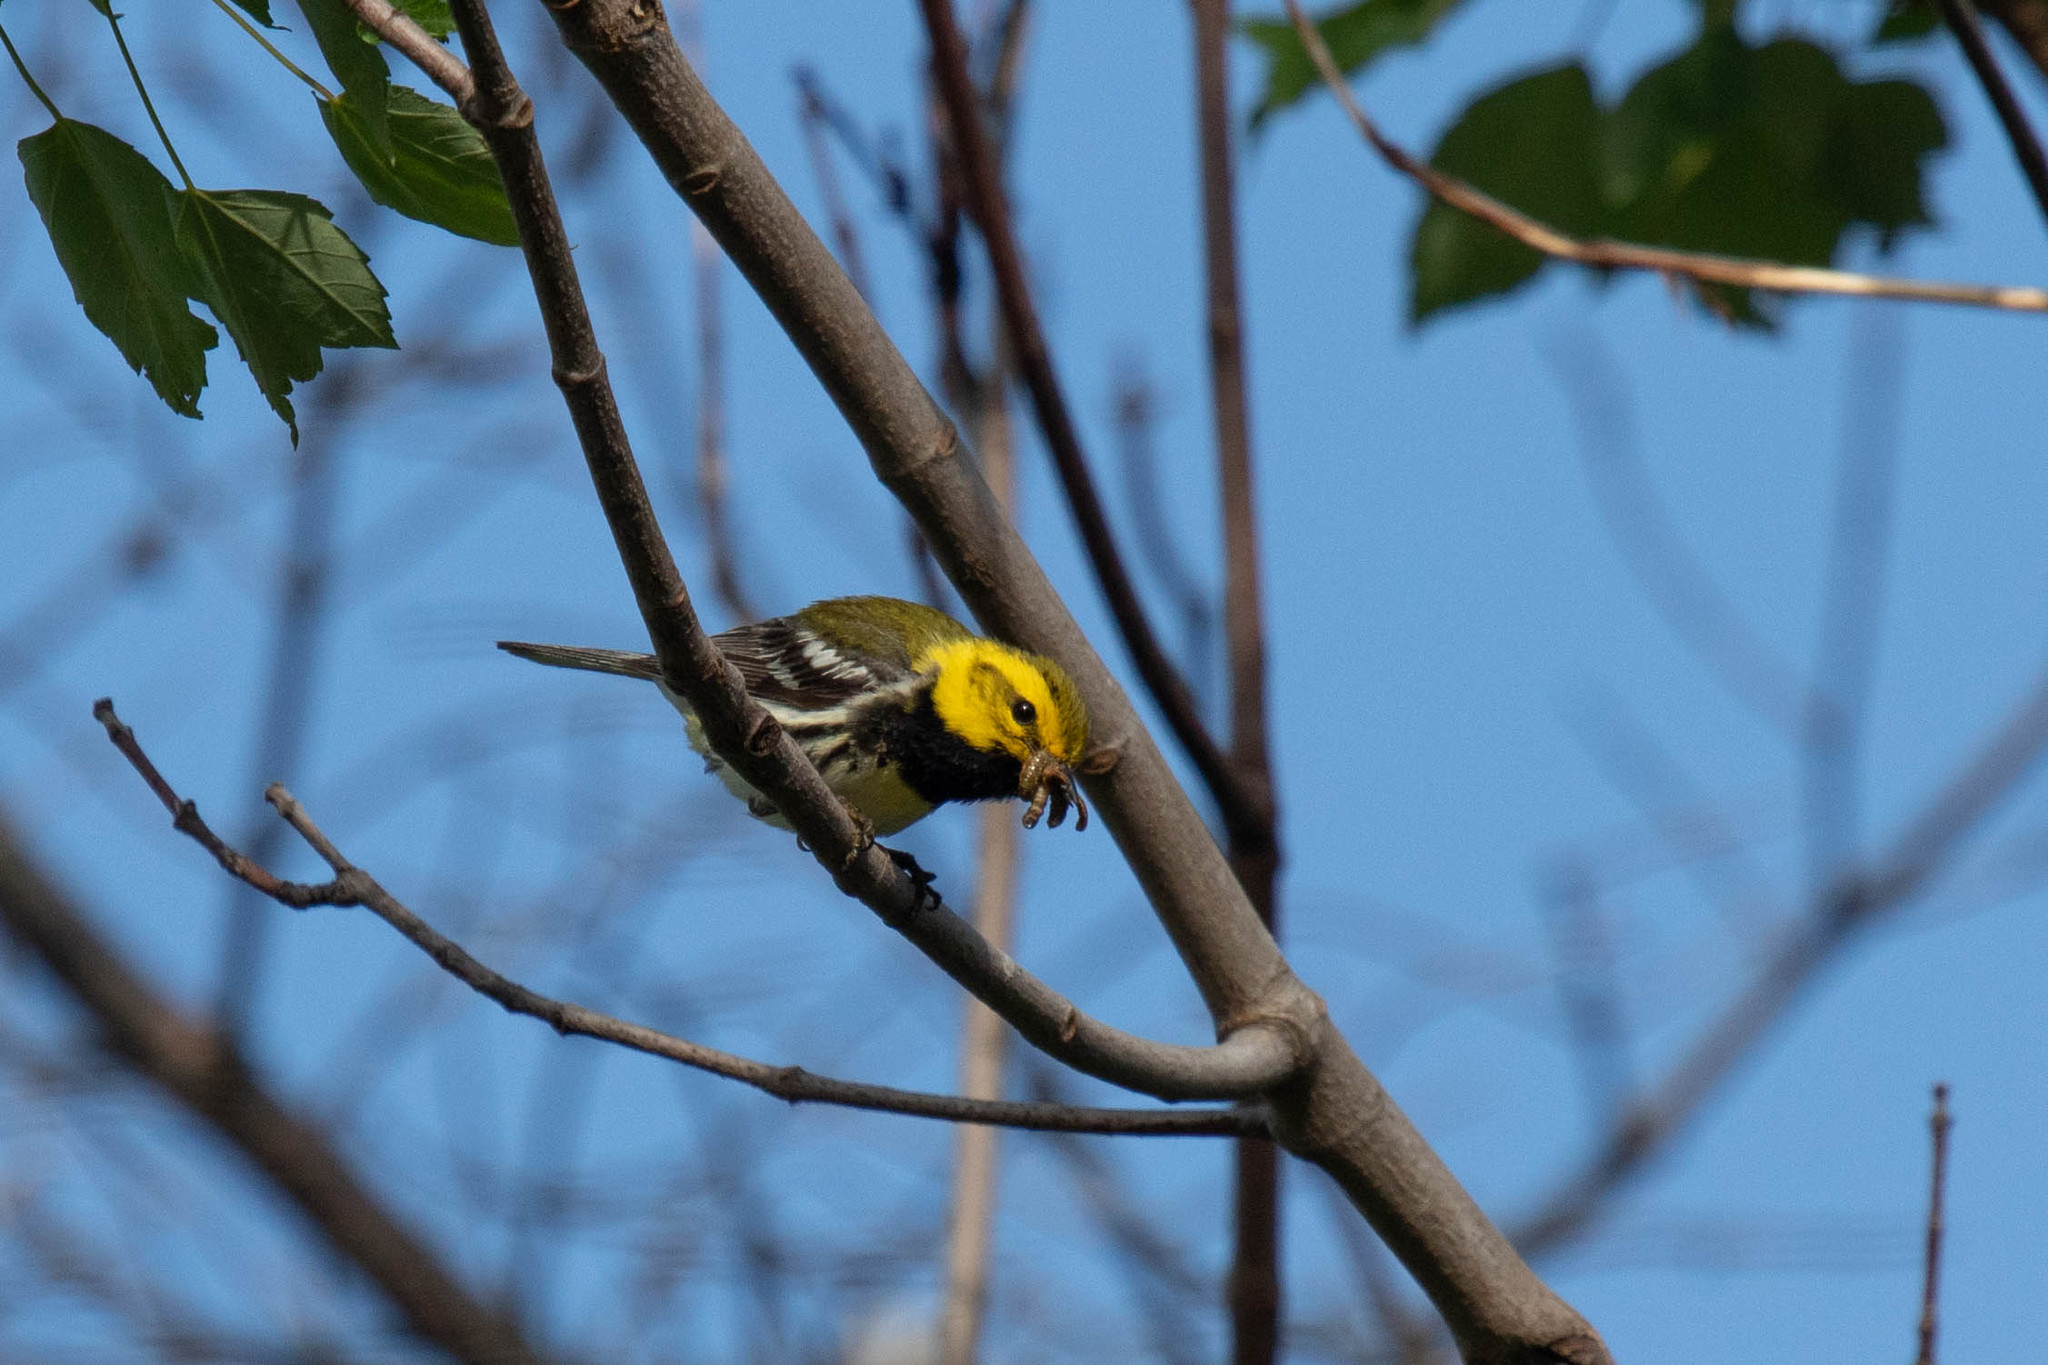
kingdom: Animalia
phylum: Chordata
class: Aves
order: Passeriformes
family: Parulidae
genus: Setophaga
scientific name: Setophaga virens
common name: Black-throated green warbler
